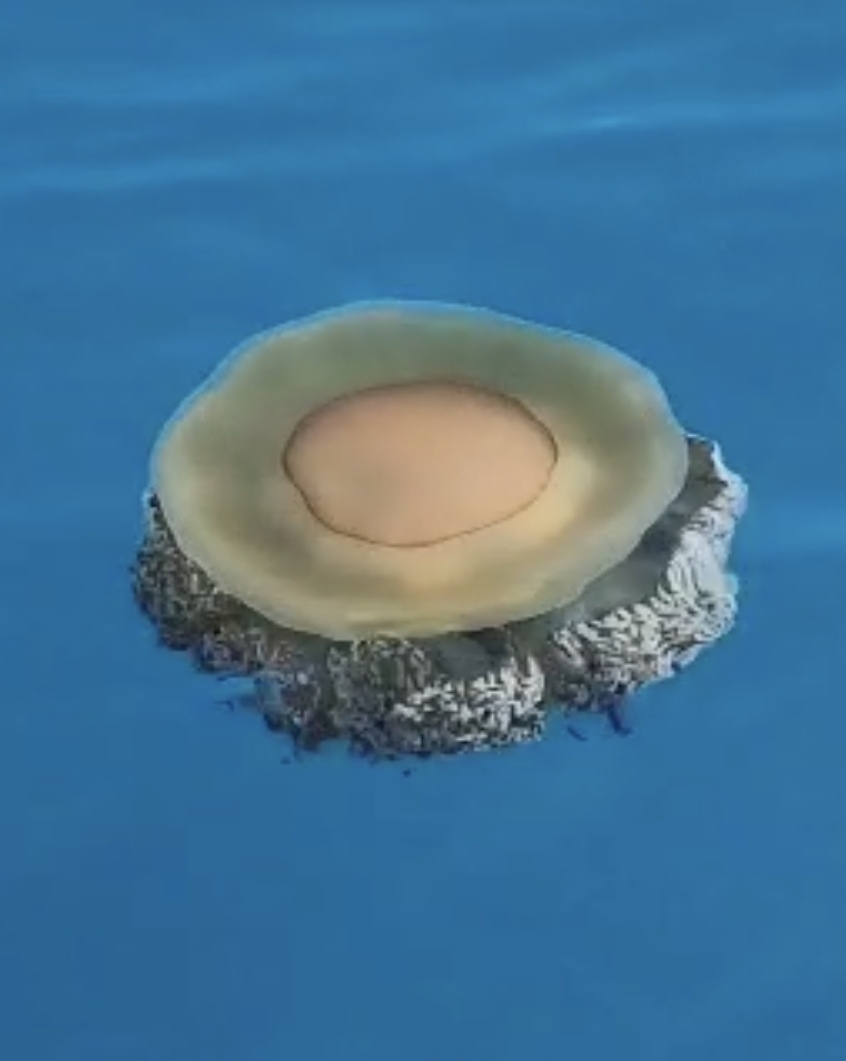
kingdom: Animalia
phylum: Cnidaria
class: Scyphozoa
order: Rhizostomeae
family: Cepheidae
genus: Cotylorhiza
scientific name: Cotylorhiza tuberculata
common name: Mediterranean jelly
